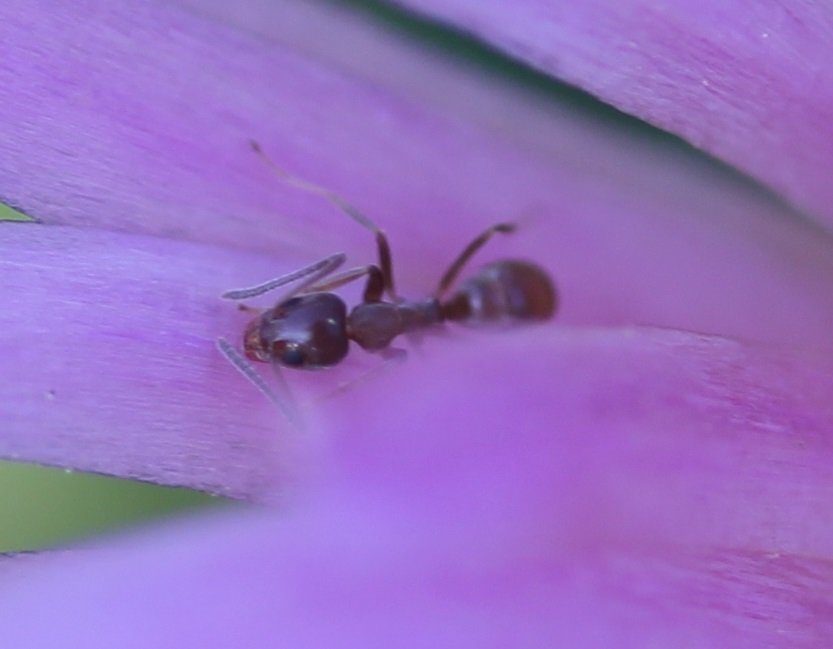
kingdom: Animalia
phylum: Arthropoda
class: Insecta
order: Hymenoptera
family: Formicidae
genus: Linepithema
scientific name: Linepithema humile
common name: Argentine ant
